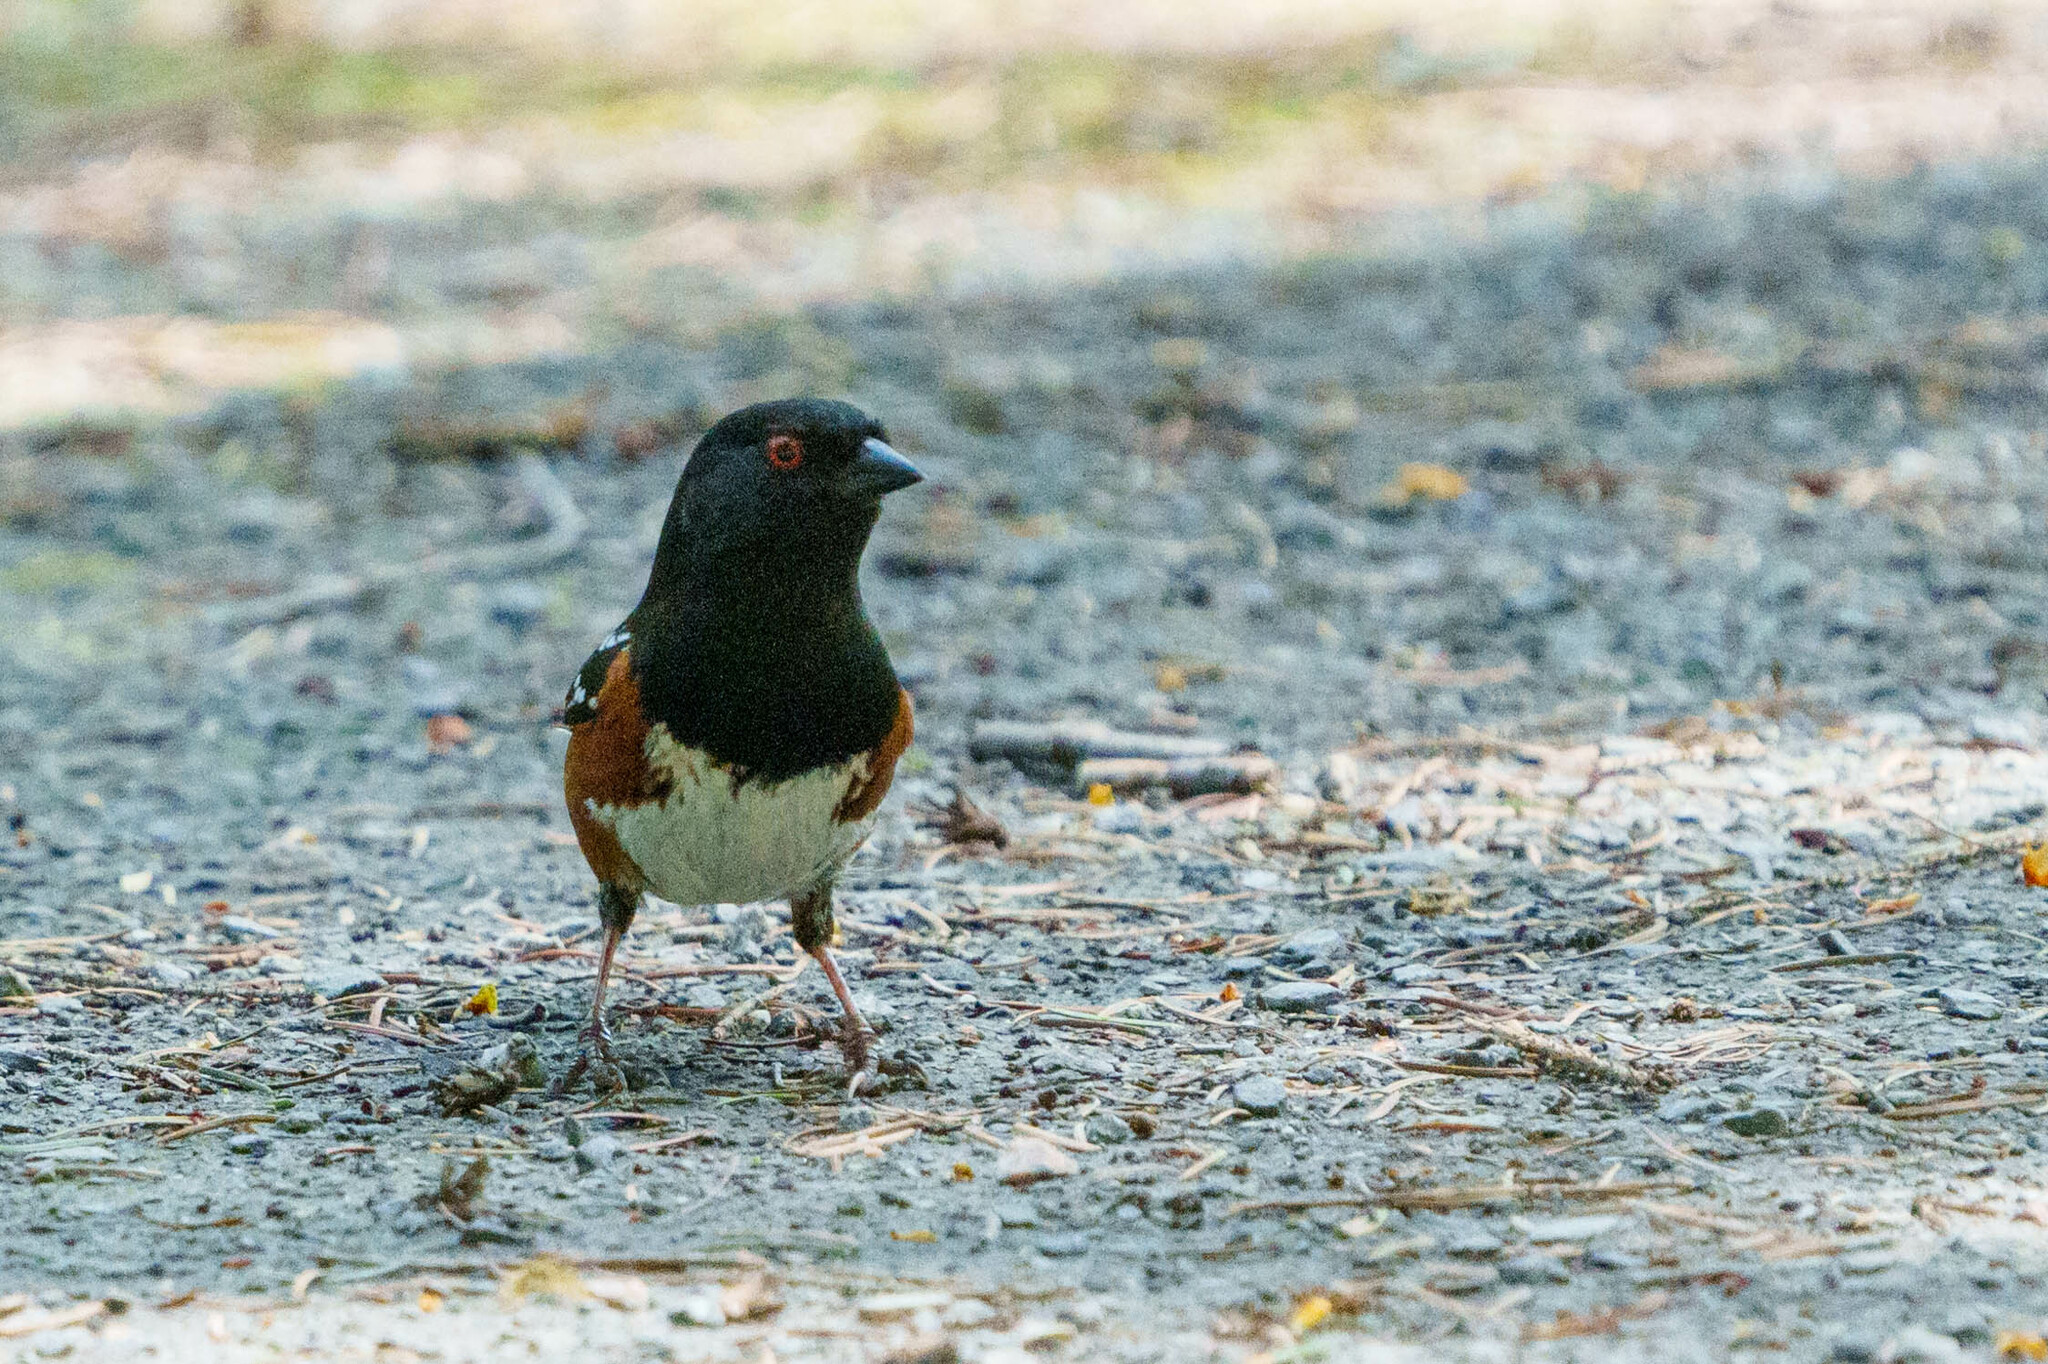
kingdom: Animalia
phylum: Chordata
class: Aves
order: Passeriformes
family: Passerellidae
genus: Pipilo
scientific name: Pipilo maculatus
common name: Spotted towhee
